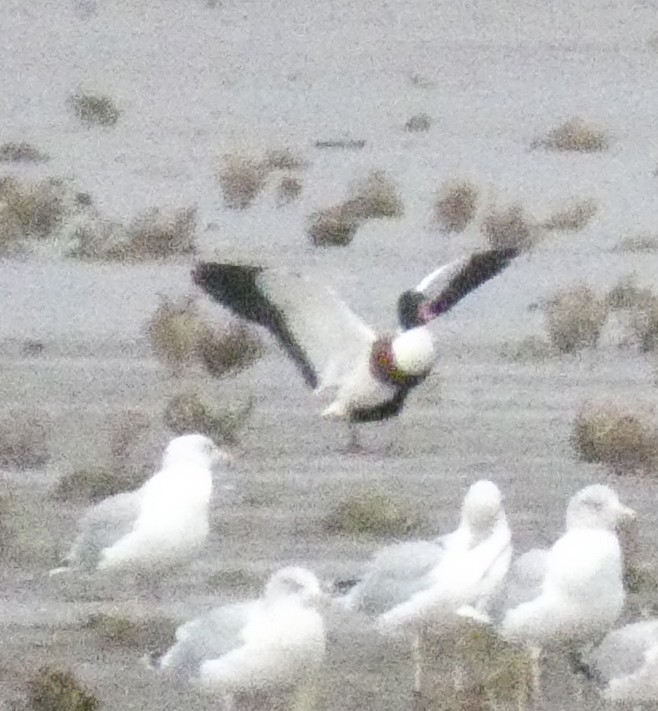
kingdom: Animalia
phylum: Chordata
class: Aves
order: Anseriformes
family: Anatidae
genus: Tadorna
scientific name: Tadorna tadorna
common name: Common shelduck
